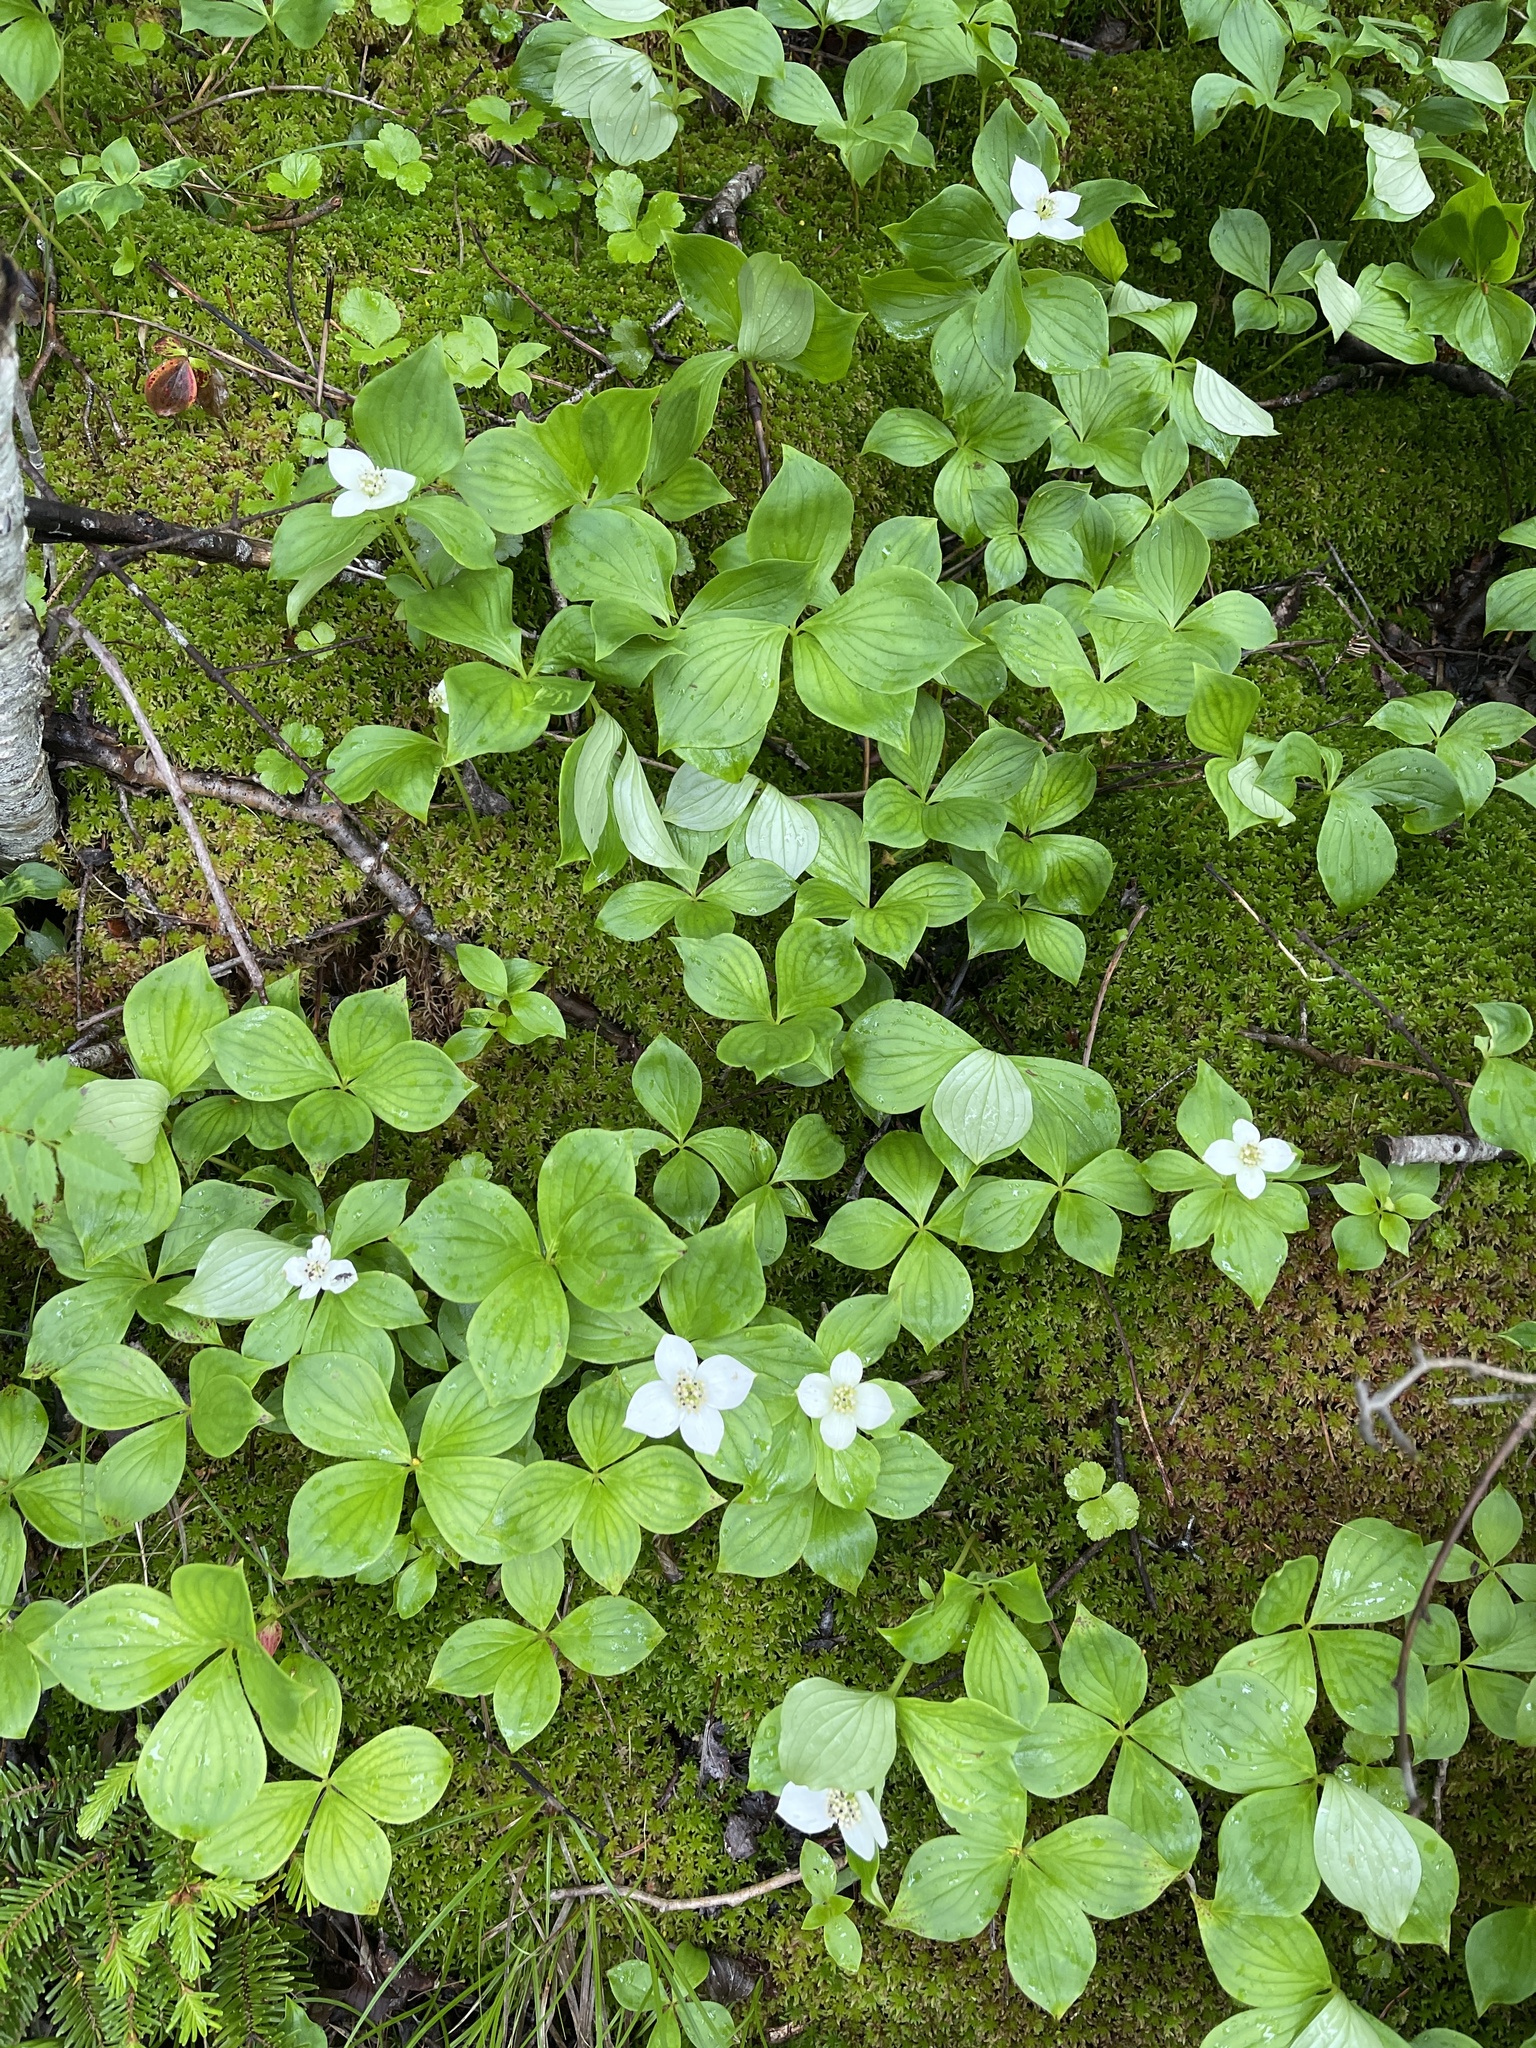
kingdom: Plantae
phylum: Tracheophyta
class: Magnoliopsida
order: Cornales
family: Cornaceae
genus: Cornus
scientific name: Cornus canadensis
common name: Creeping dogwood
